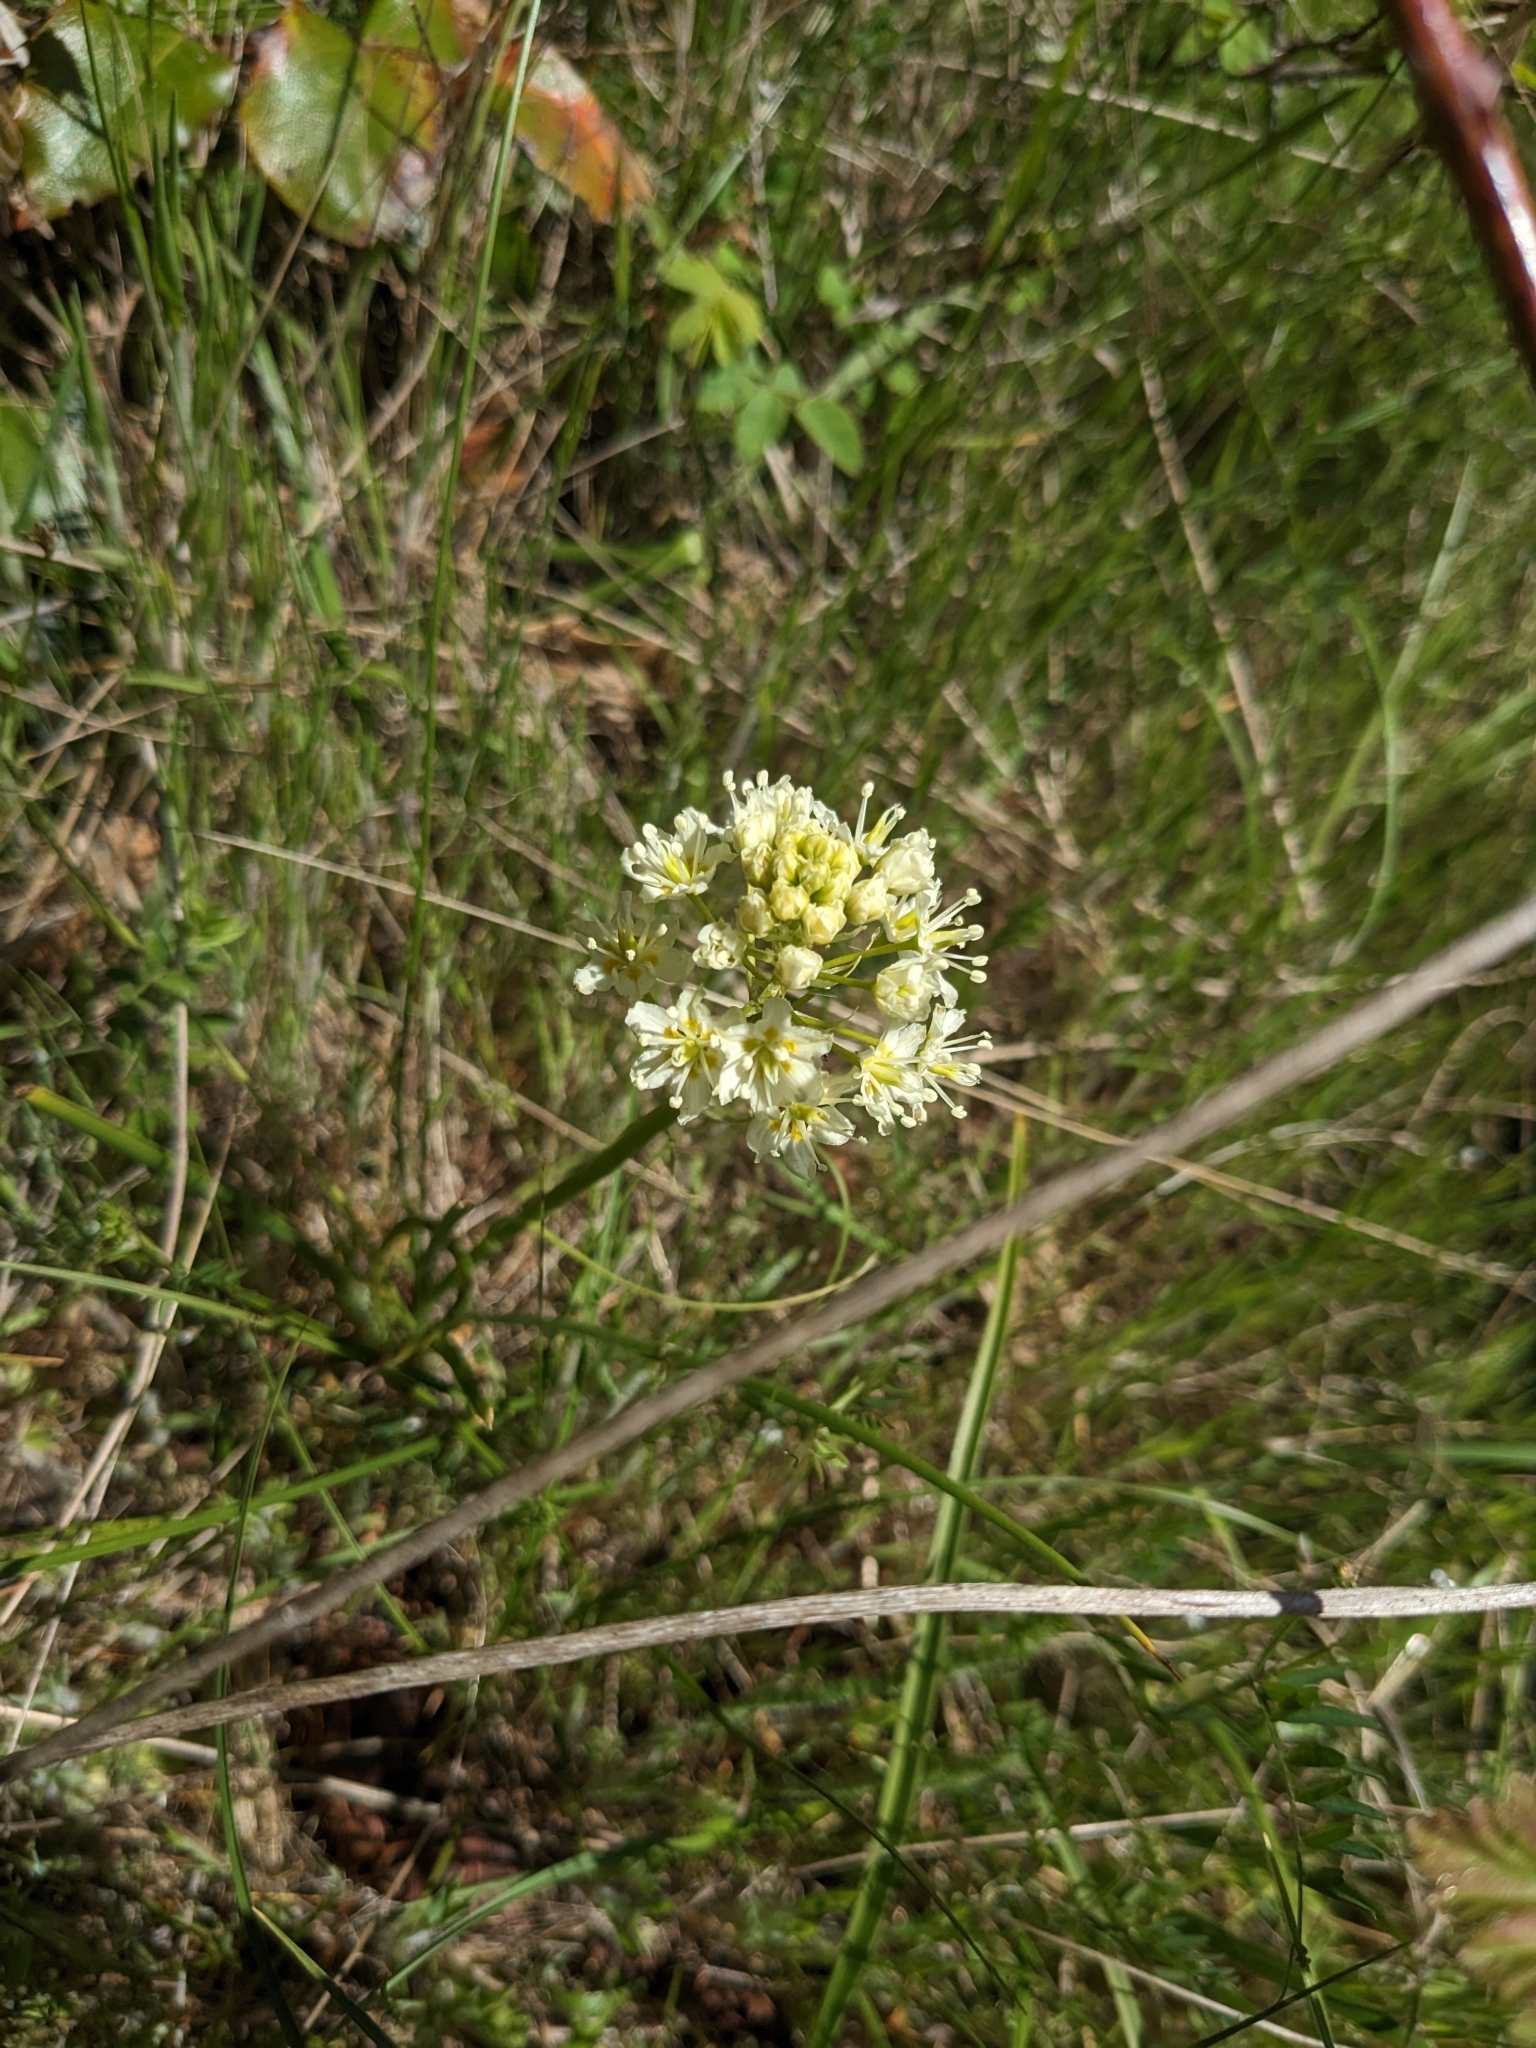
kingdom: Plantae
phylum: Tracheophyta
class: Liliopsida
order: Liliales
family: Melanthiaceae
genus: Toxicoscordion
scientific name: Toxicoscordion venenosum
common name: Meadow death camas
